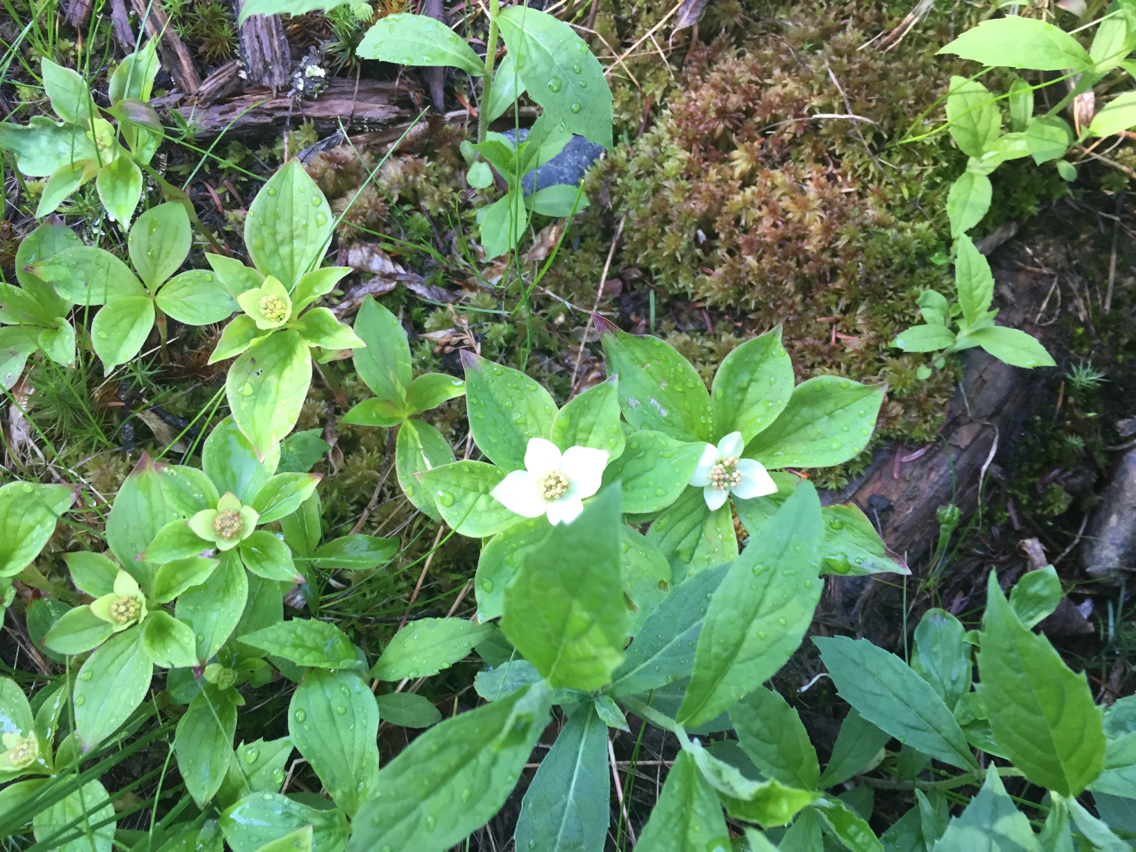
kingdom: Plantae
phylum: Tracheophyta
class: Magnoliopsida
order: Cornales
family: Cornaceae
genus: Cornus
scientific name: Cornus canadensis
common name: Creeping dogwood
